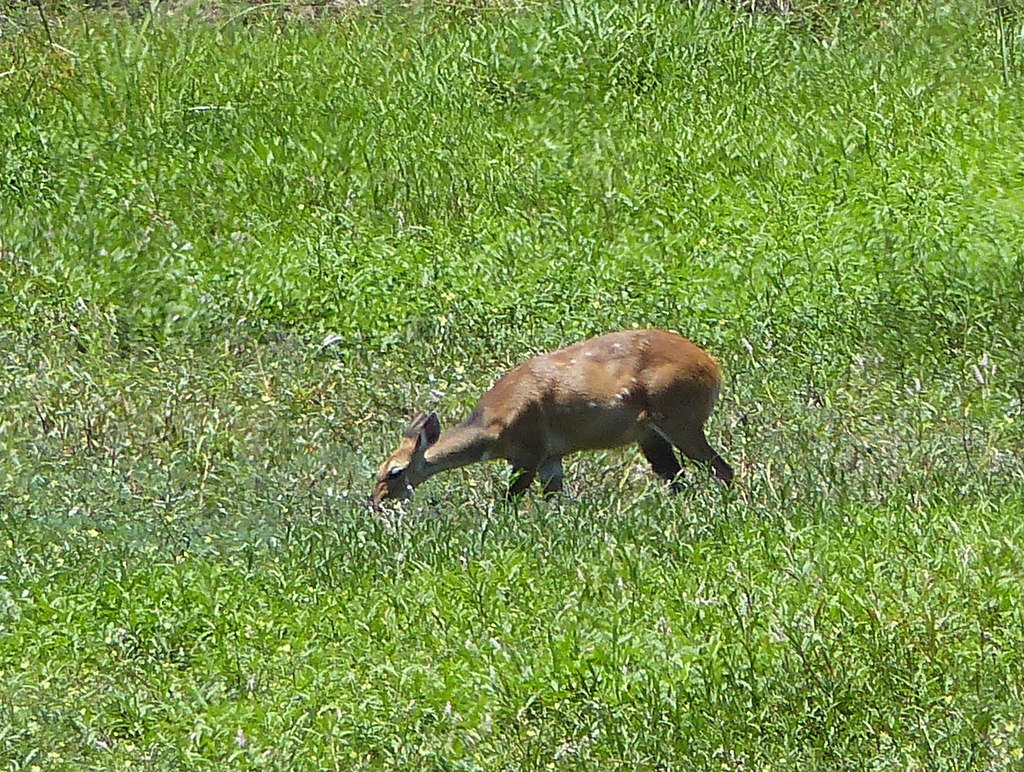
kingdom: Animalia
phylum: Chordata
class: Mammalia
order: Artiodactyla
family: Bovidae
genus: Tragelaphus
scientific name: Tragelaphus scriptus
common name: Bushbuck
